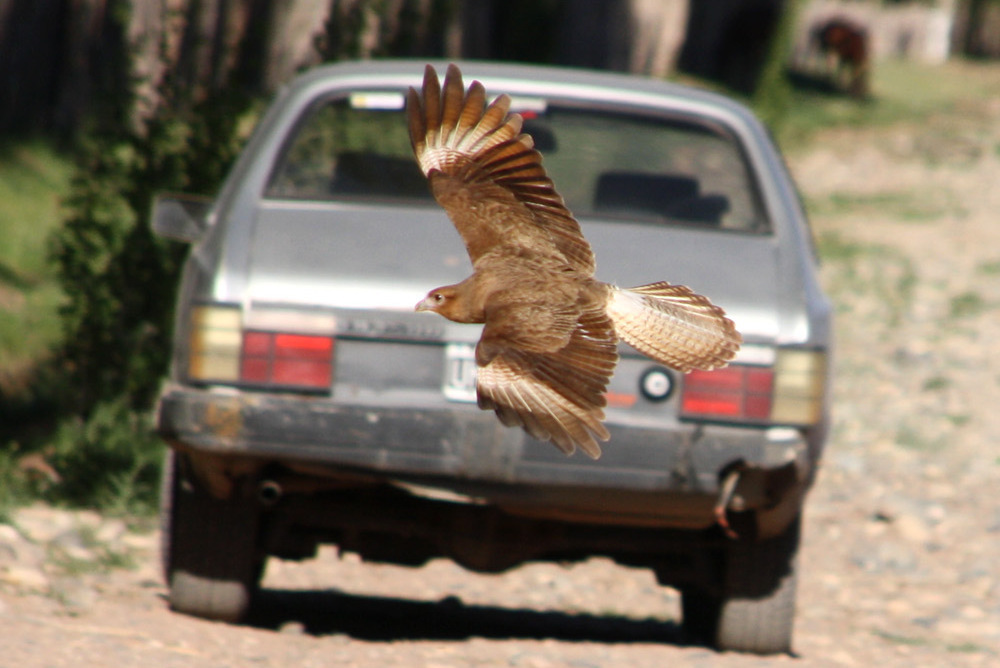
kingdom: Animalia
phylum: Chordata
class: Aves
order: Falconiformes
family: Falconidae
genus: Daptrius
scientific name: Daptrius
